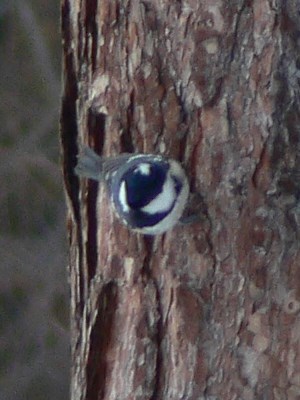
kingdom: Animalia
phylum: Chordata
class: Aves
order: Passeriformes
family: Paridae
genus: Periparus
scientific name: Periparus ater
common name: Coal tit
